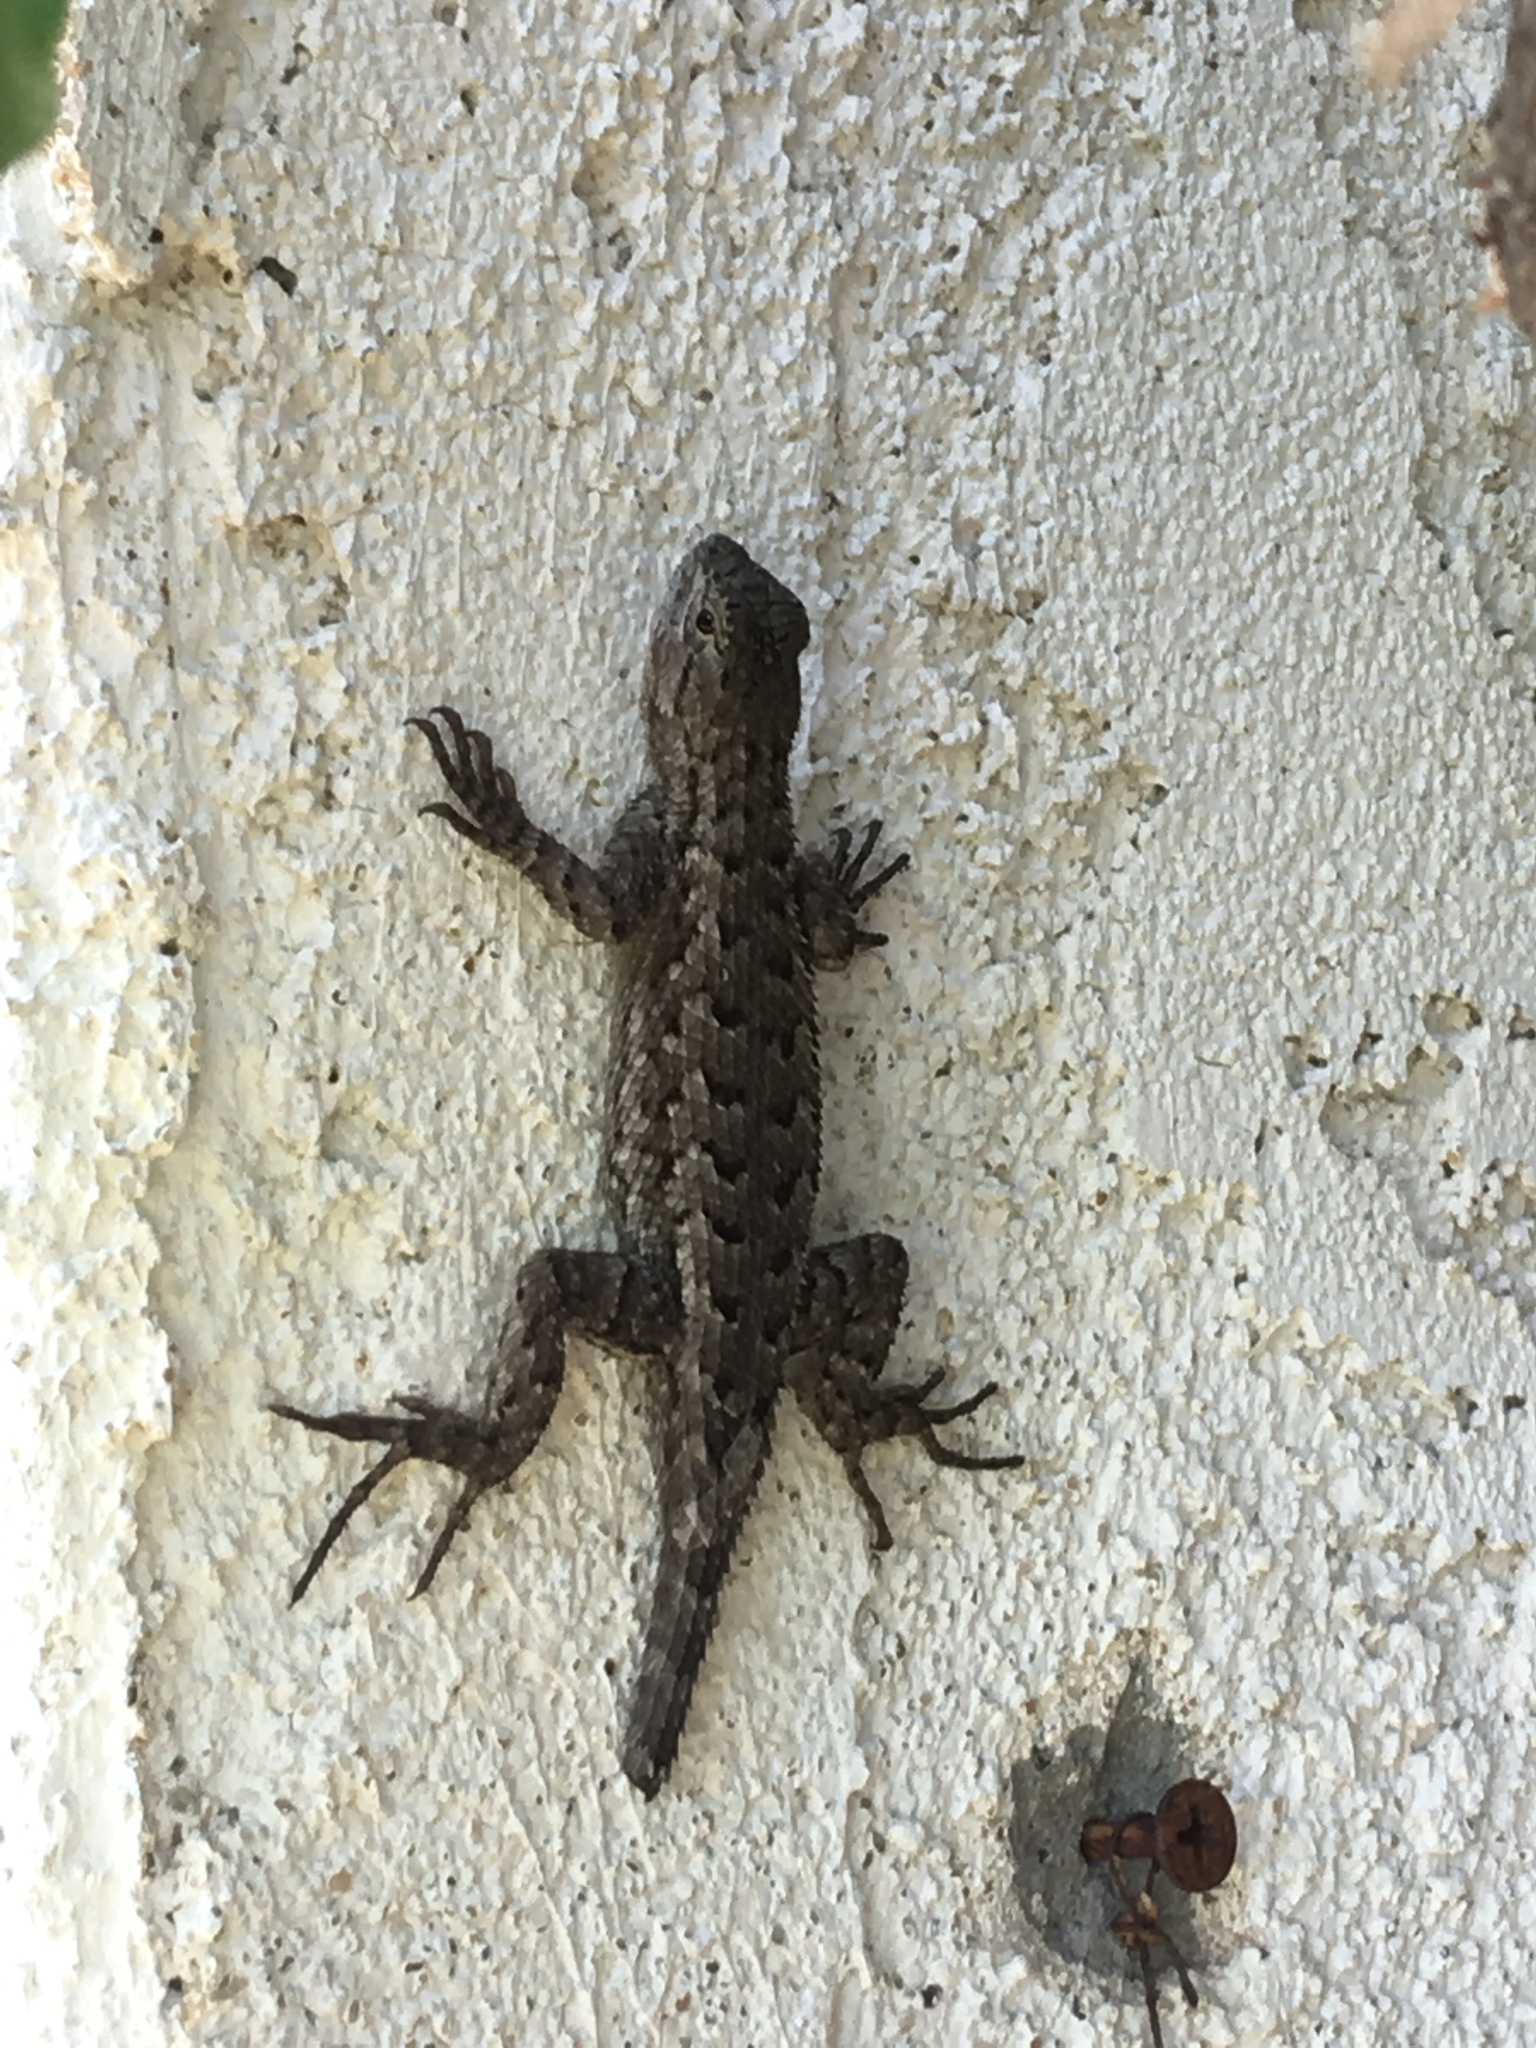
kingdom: Animalia
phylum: Chordata
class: Squamata
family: Phrynosomatidae
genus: Sceloporus
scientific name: Sceloporus occidentalis
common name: Western fence lizard
